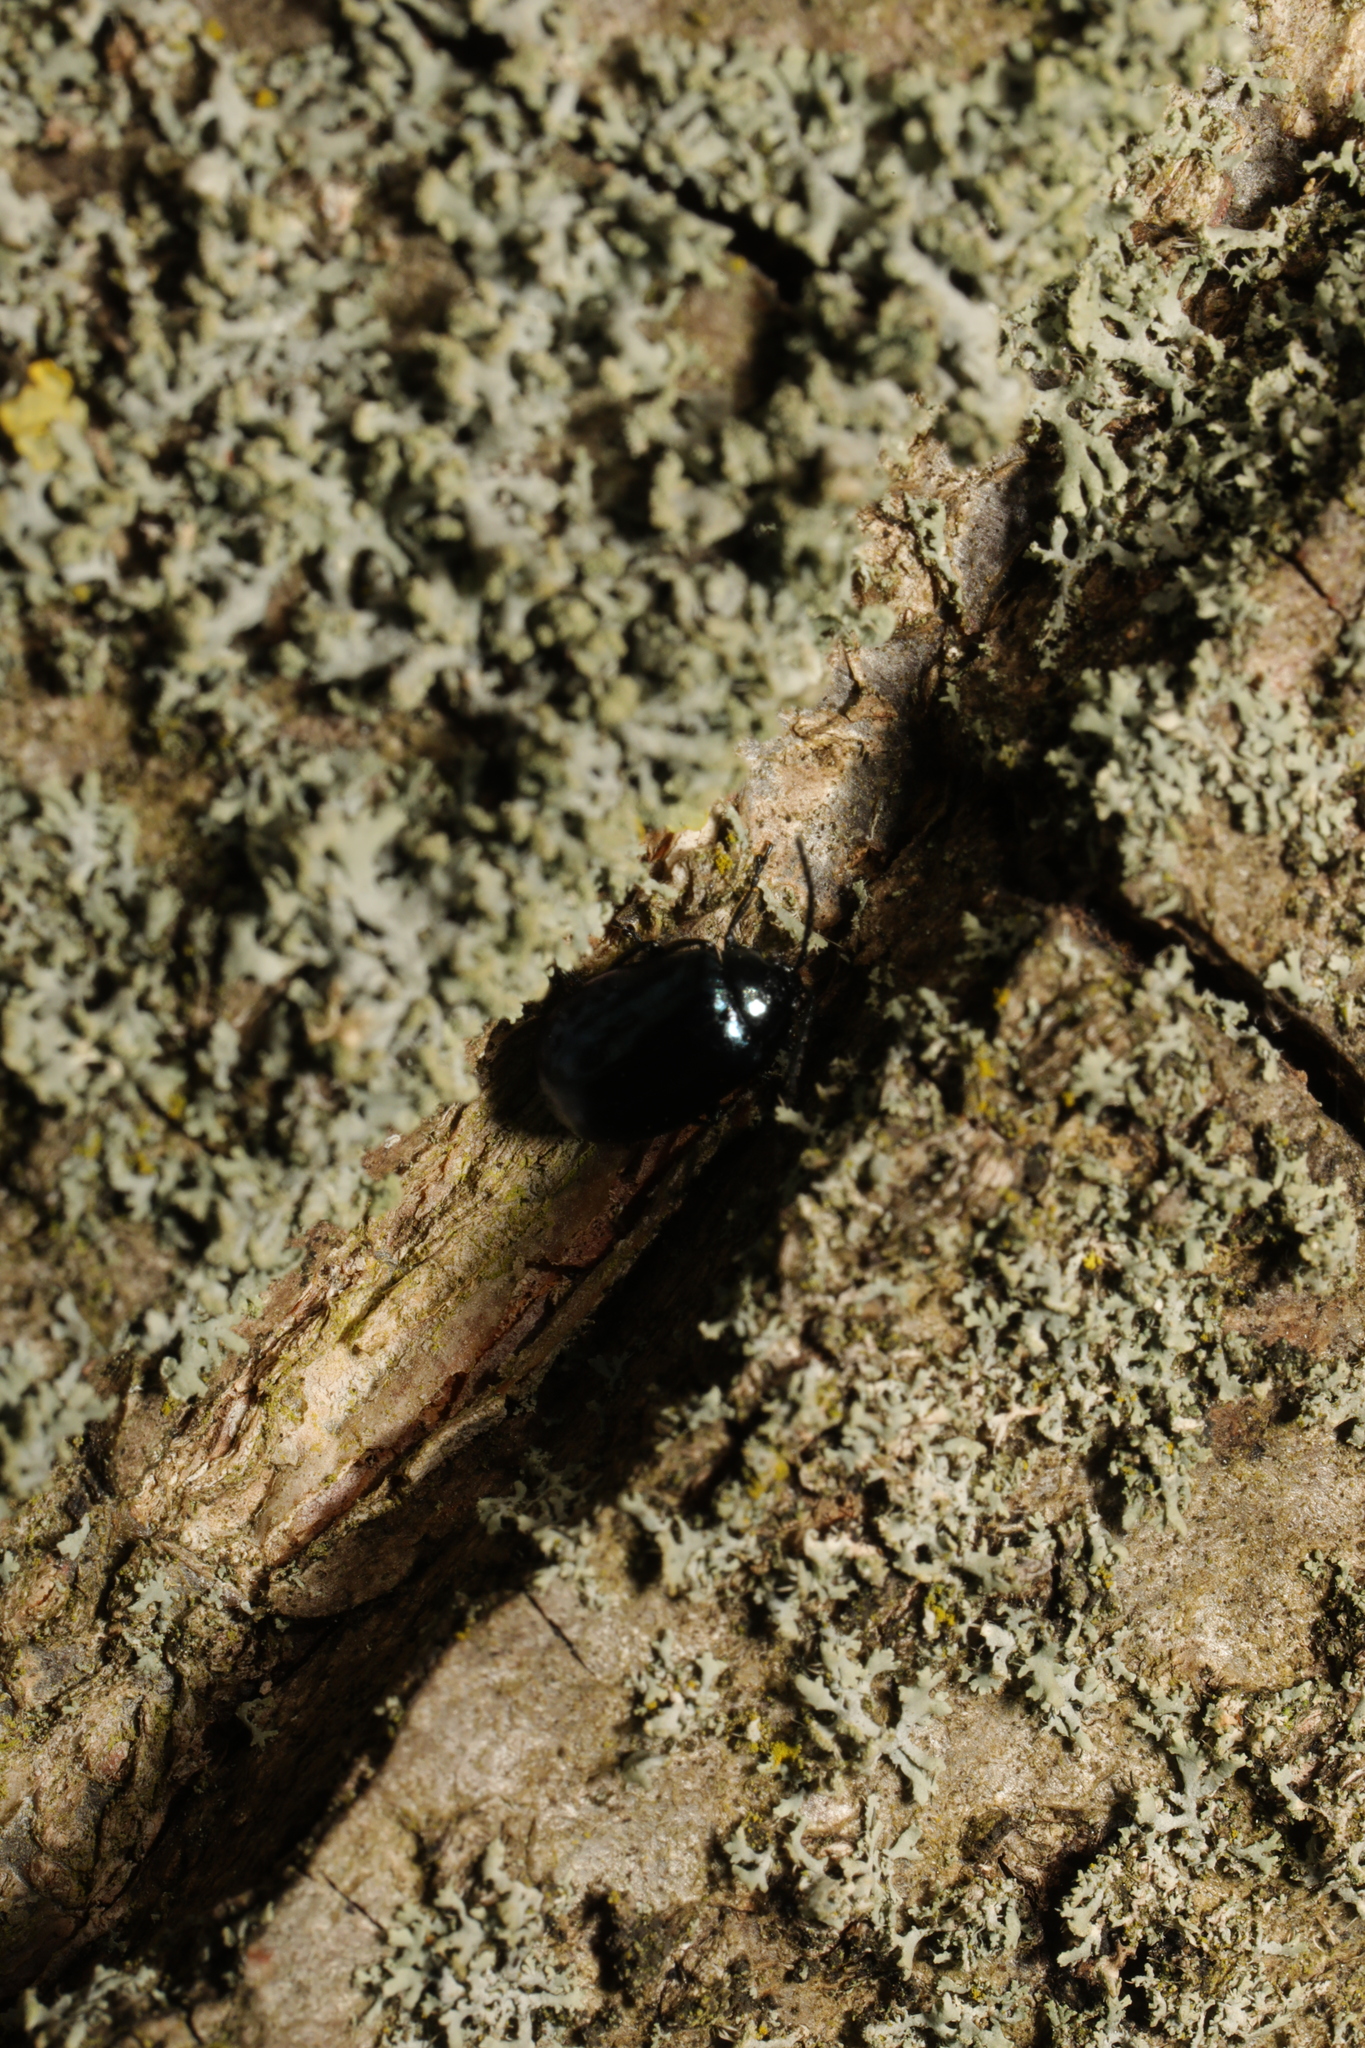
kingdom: Animalia
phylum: Arthropoda
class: Insecta
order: Coleoptera
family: Chrysomelidae
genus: Agelastica
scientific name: Agelastica alni
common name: Alder leaf beetle
